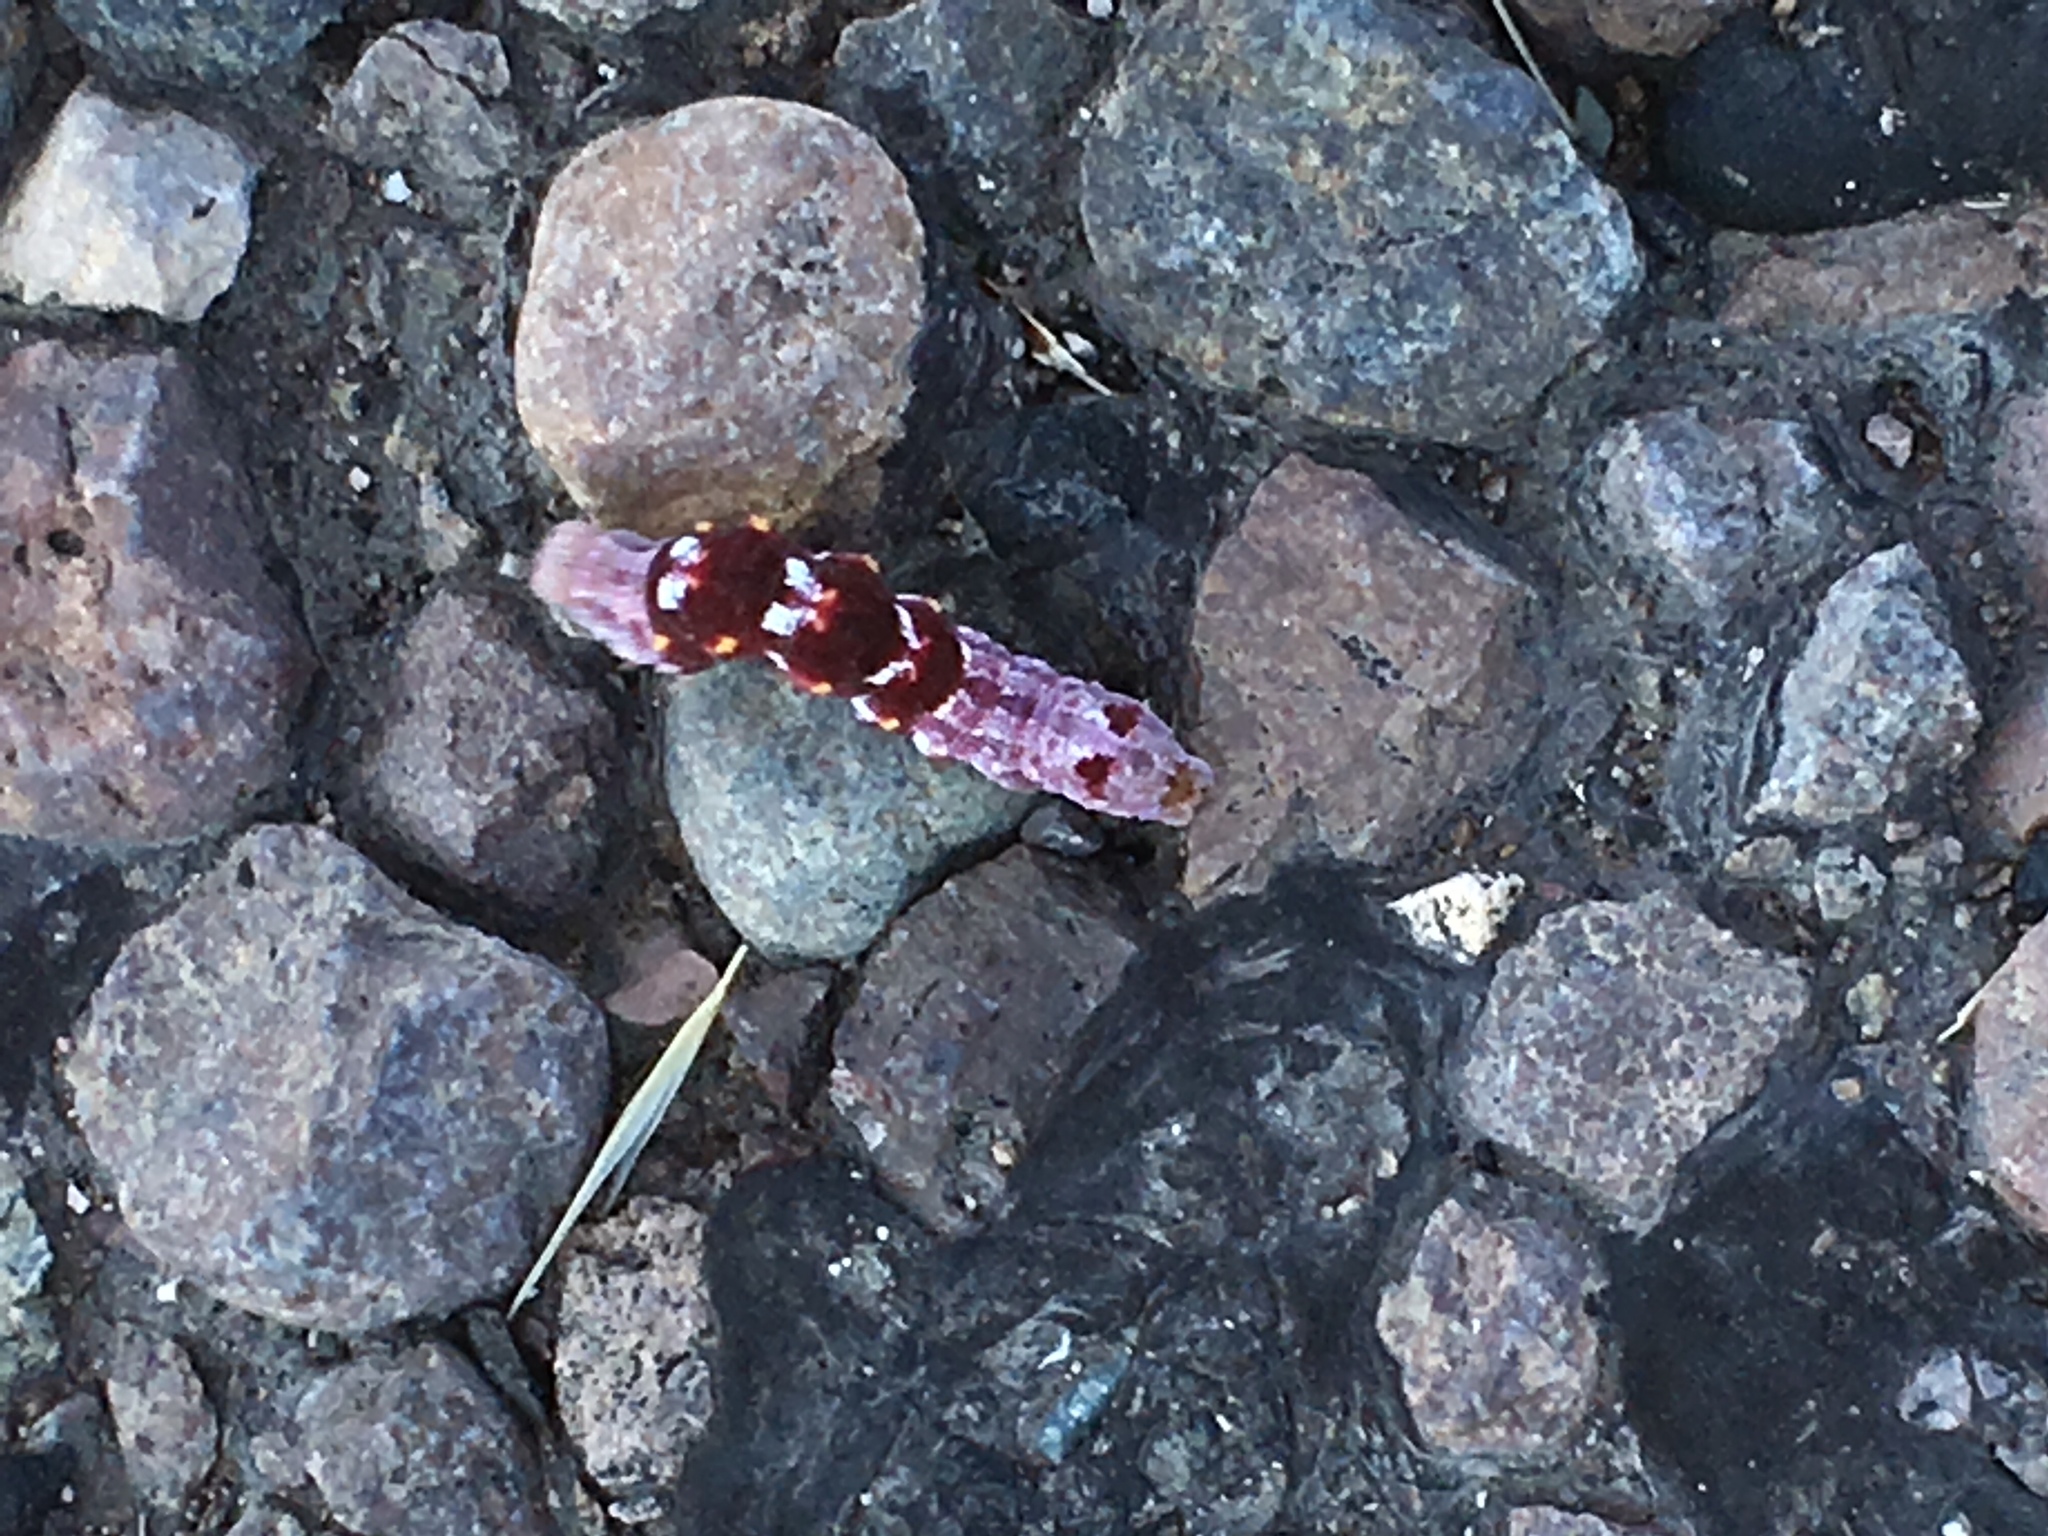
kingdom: Animalia
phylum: Arthropoda
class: Insecta
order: Lepidoptera
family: Noctuidae
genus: Acontia
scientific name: Acontia lucasi
